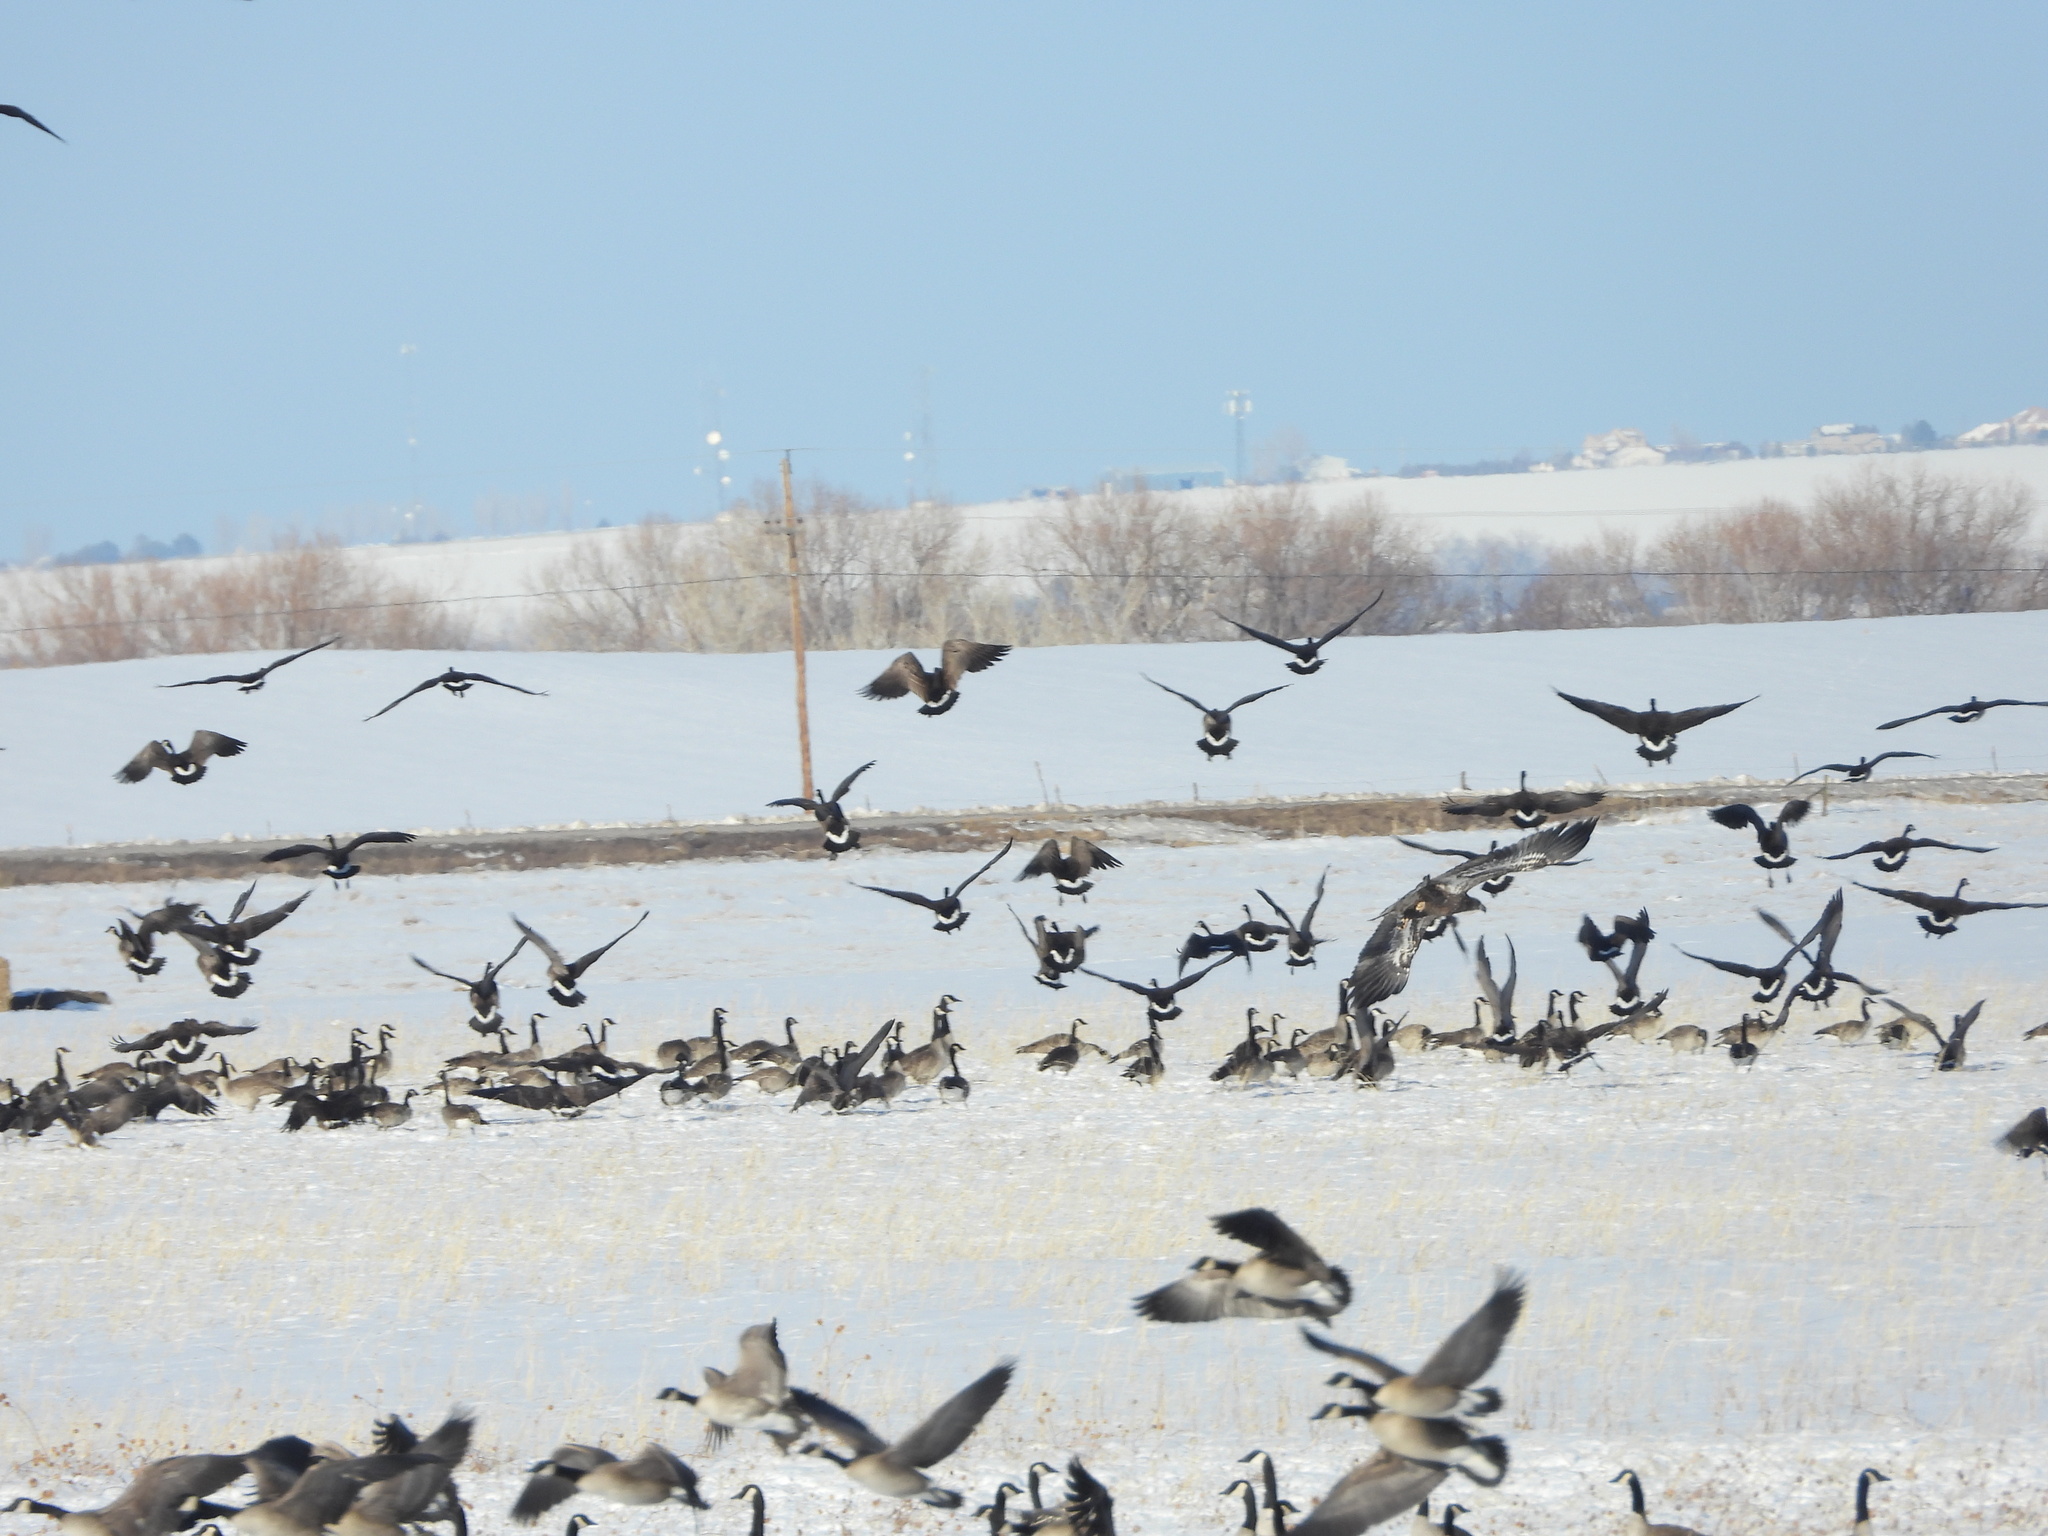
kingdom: Animalia
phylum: Chordata
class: Aves
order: Anseriformes
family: Anatidae
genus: Branta
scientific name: Branta hutchinsii
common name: Cackling goose
